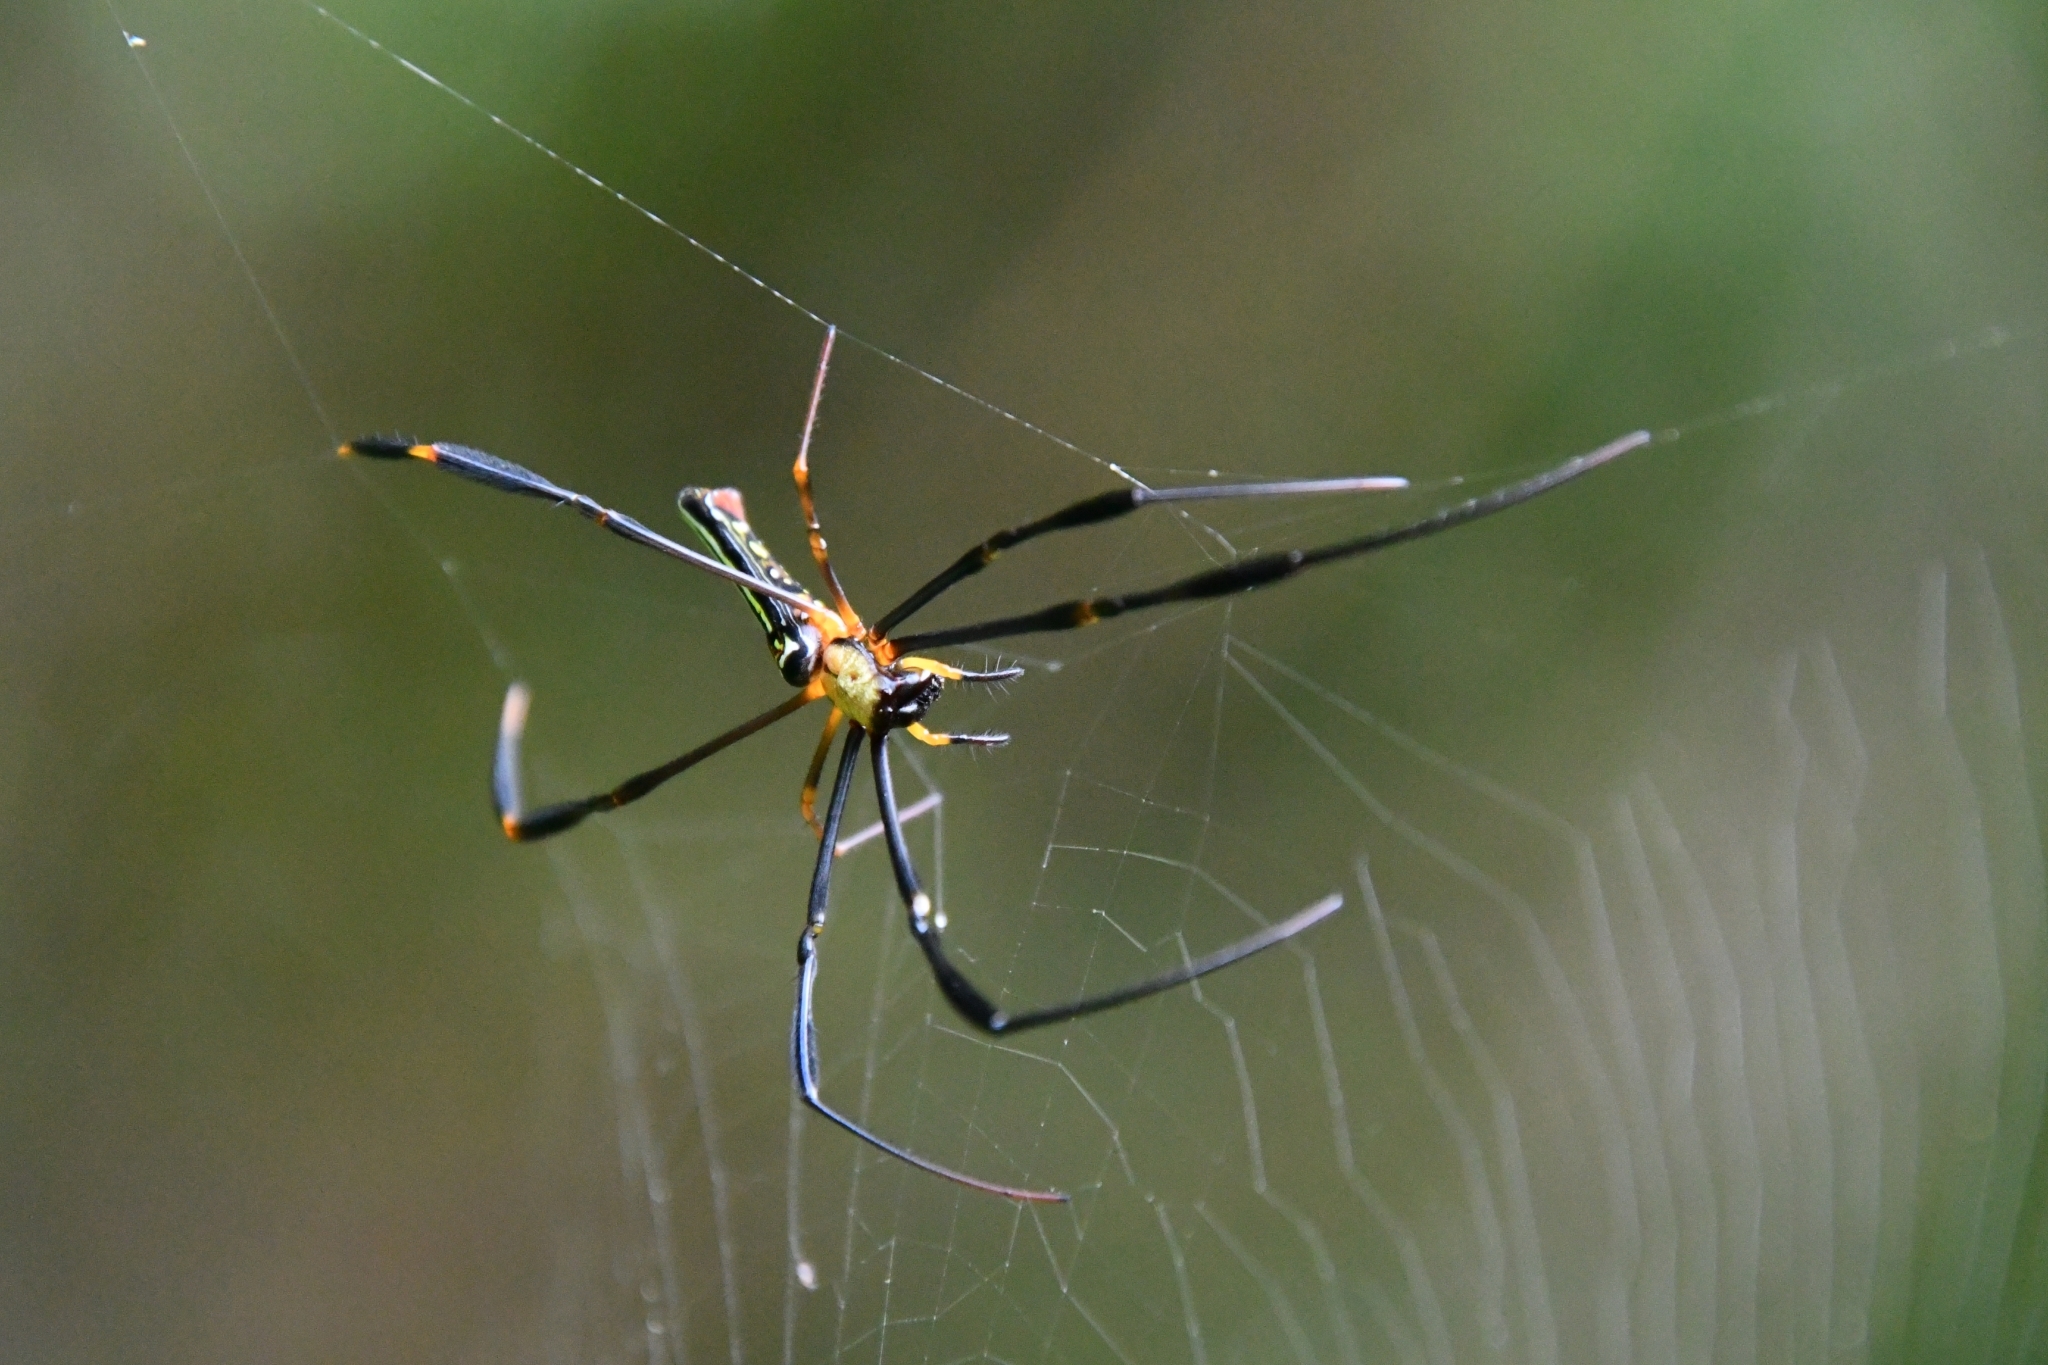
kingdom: Animalia
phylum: Arthropoda
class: Arachnida
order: Araneae
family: Araneidae
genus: Nephila
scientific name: Nephila pilipes
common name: Giant golden orb weaver
